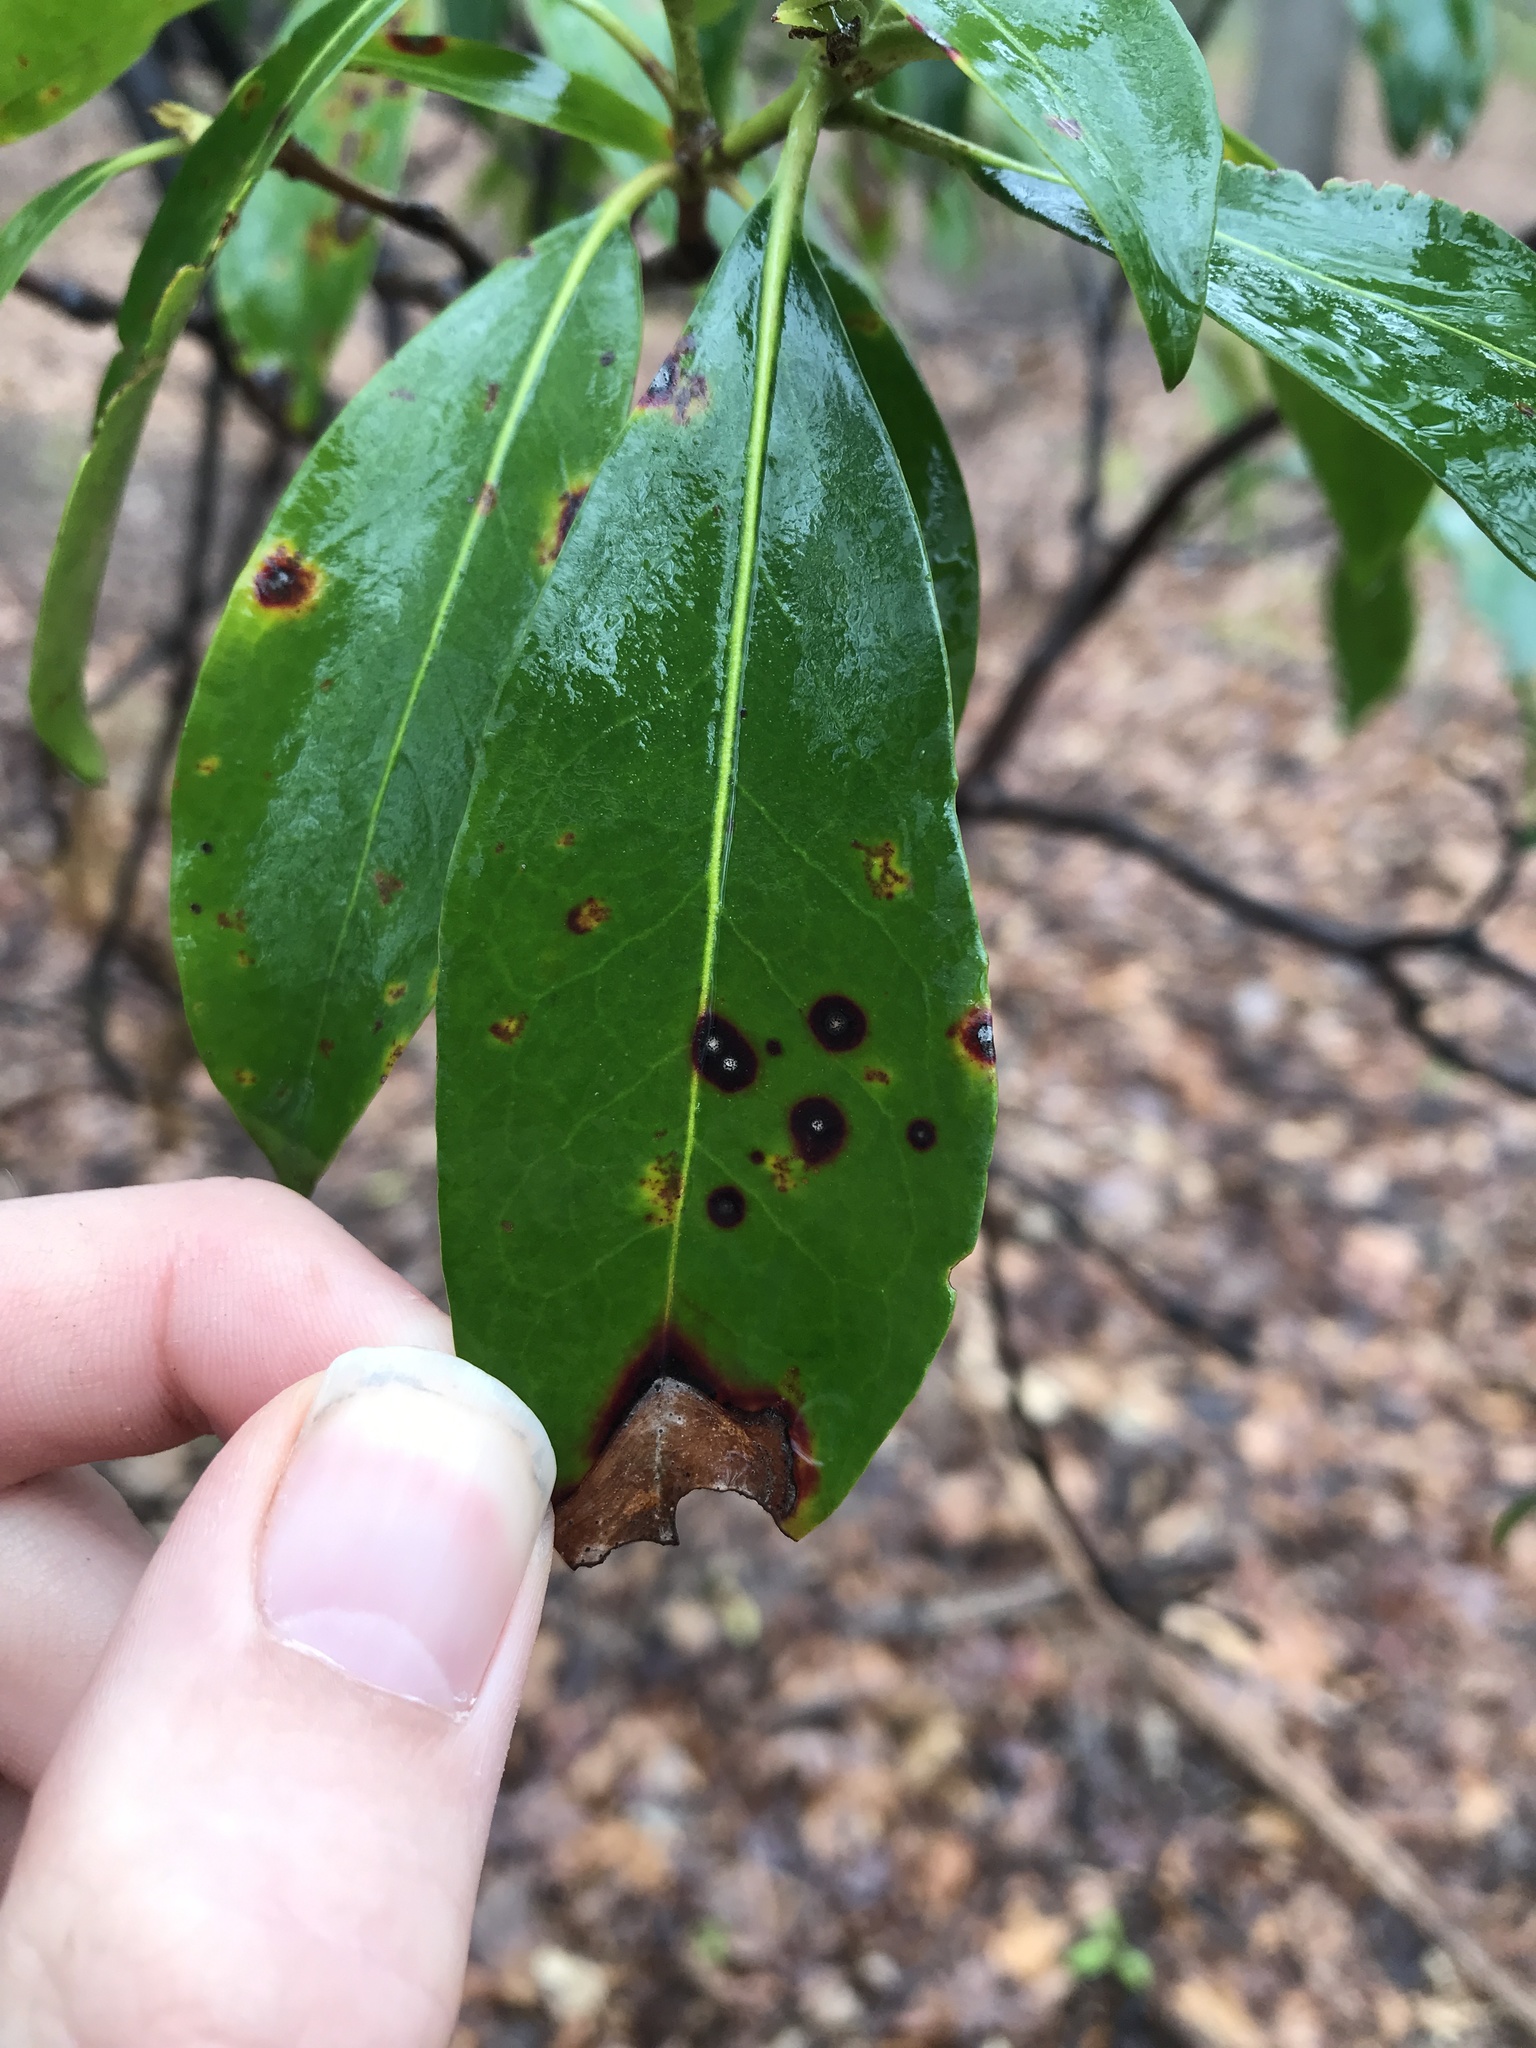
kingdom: Fungi
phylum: Ascomycota
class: Dothideomycetes
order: Mycosphaerellales
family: Mycosphaerellaceae
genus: Mycosphaerella
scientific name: Mycosphaerella colorata
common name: Mountain laurel leaf spot
